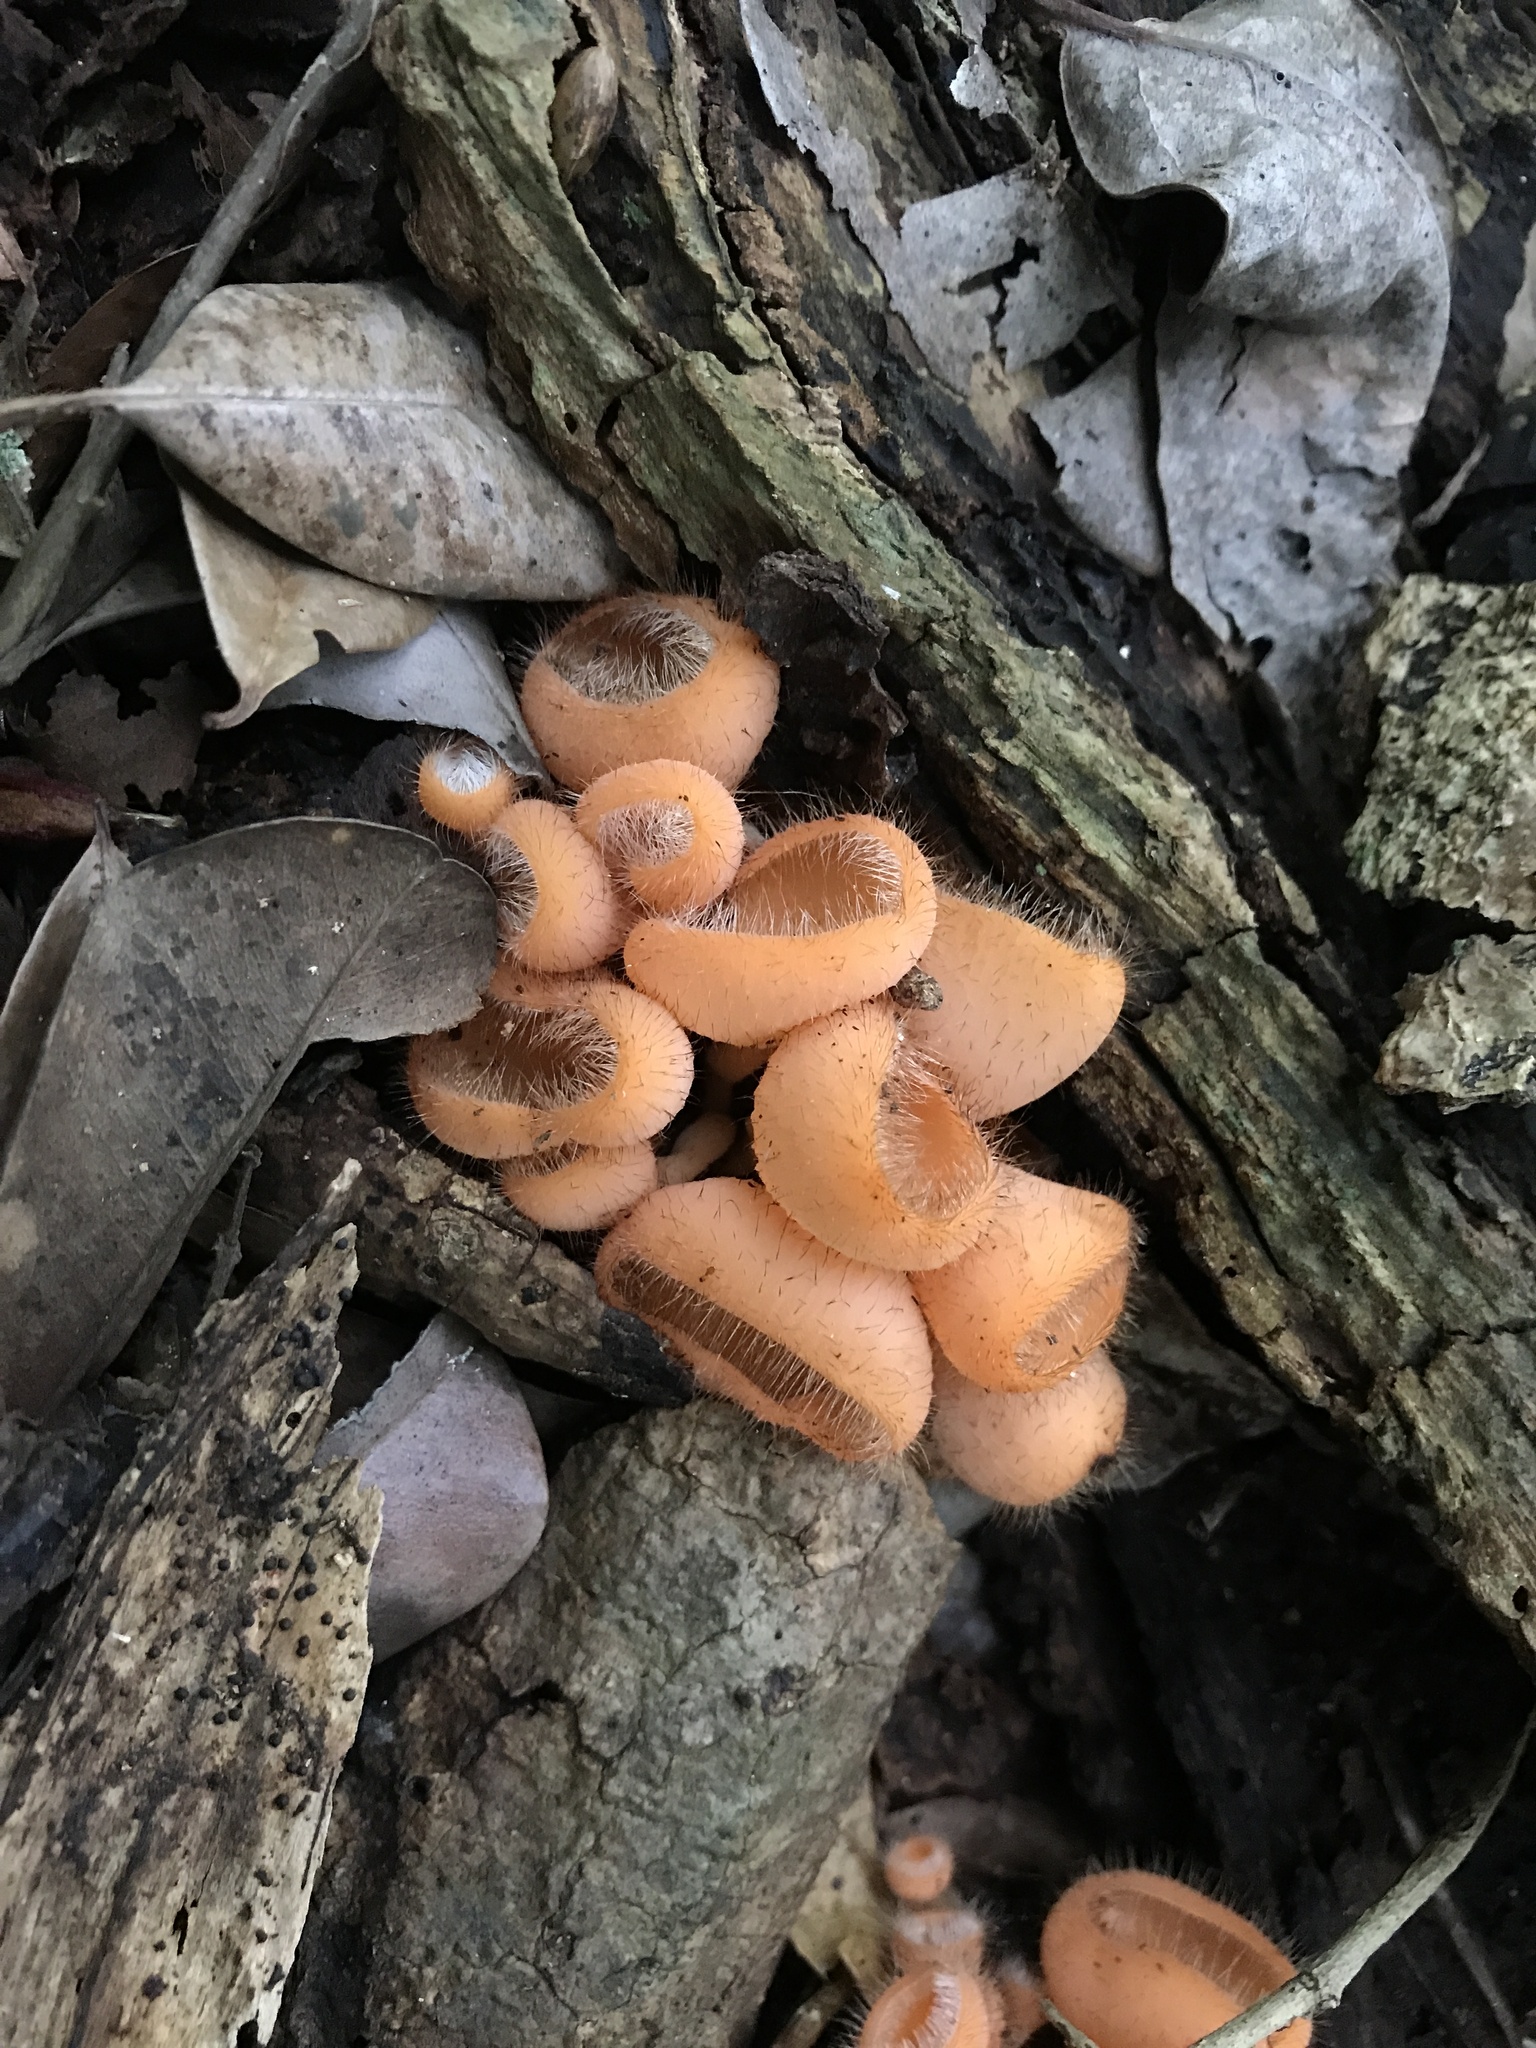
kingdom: Fungi
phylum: Ascomycota
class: Pezizomycetes
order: Pezizales
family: Sarcoscyphaceae
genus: Cookeina
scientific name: Cookeina tricholoma
